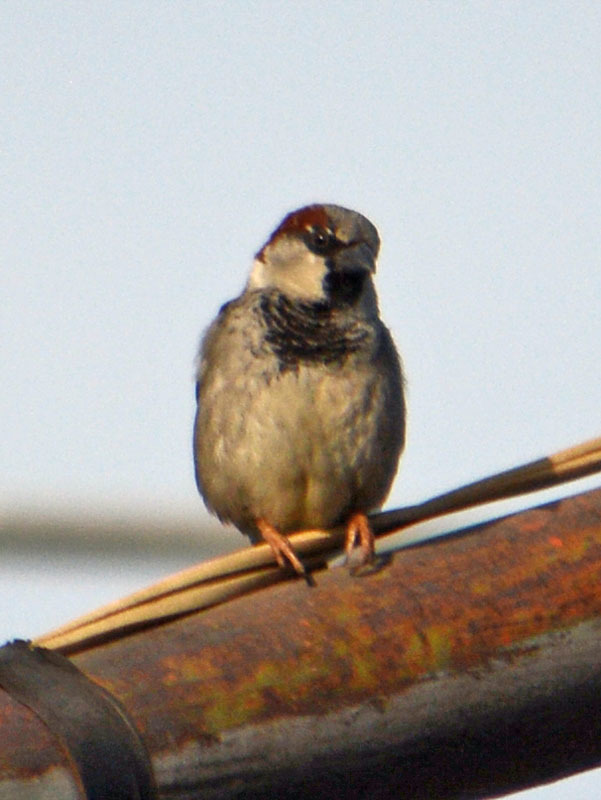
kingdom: Animalia
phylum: Chordata
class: Aves
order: Passeriformes
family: Passeridae
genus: Passer
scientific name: Passer domesticus
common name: House sparrow
